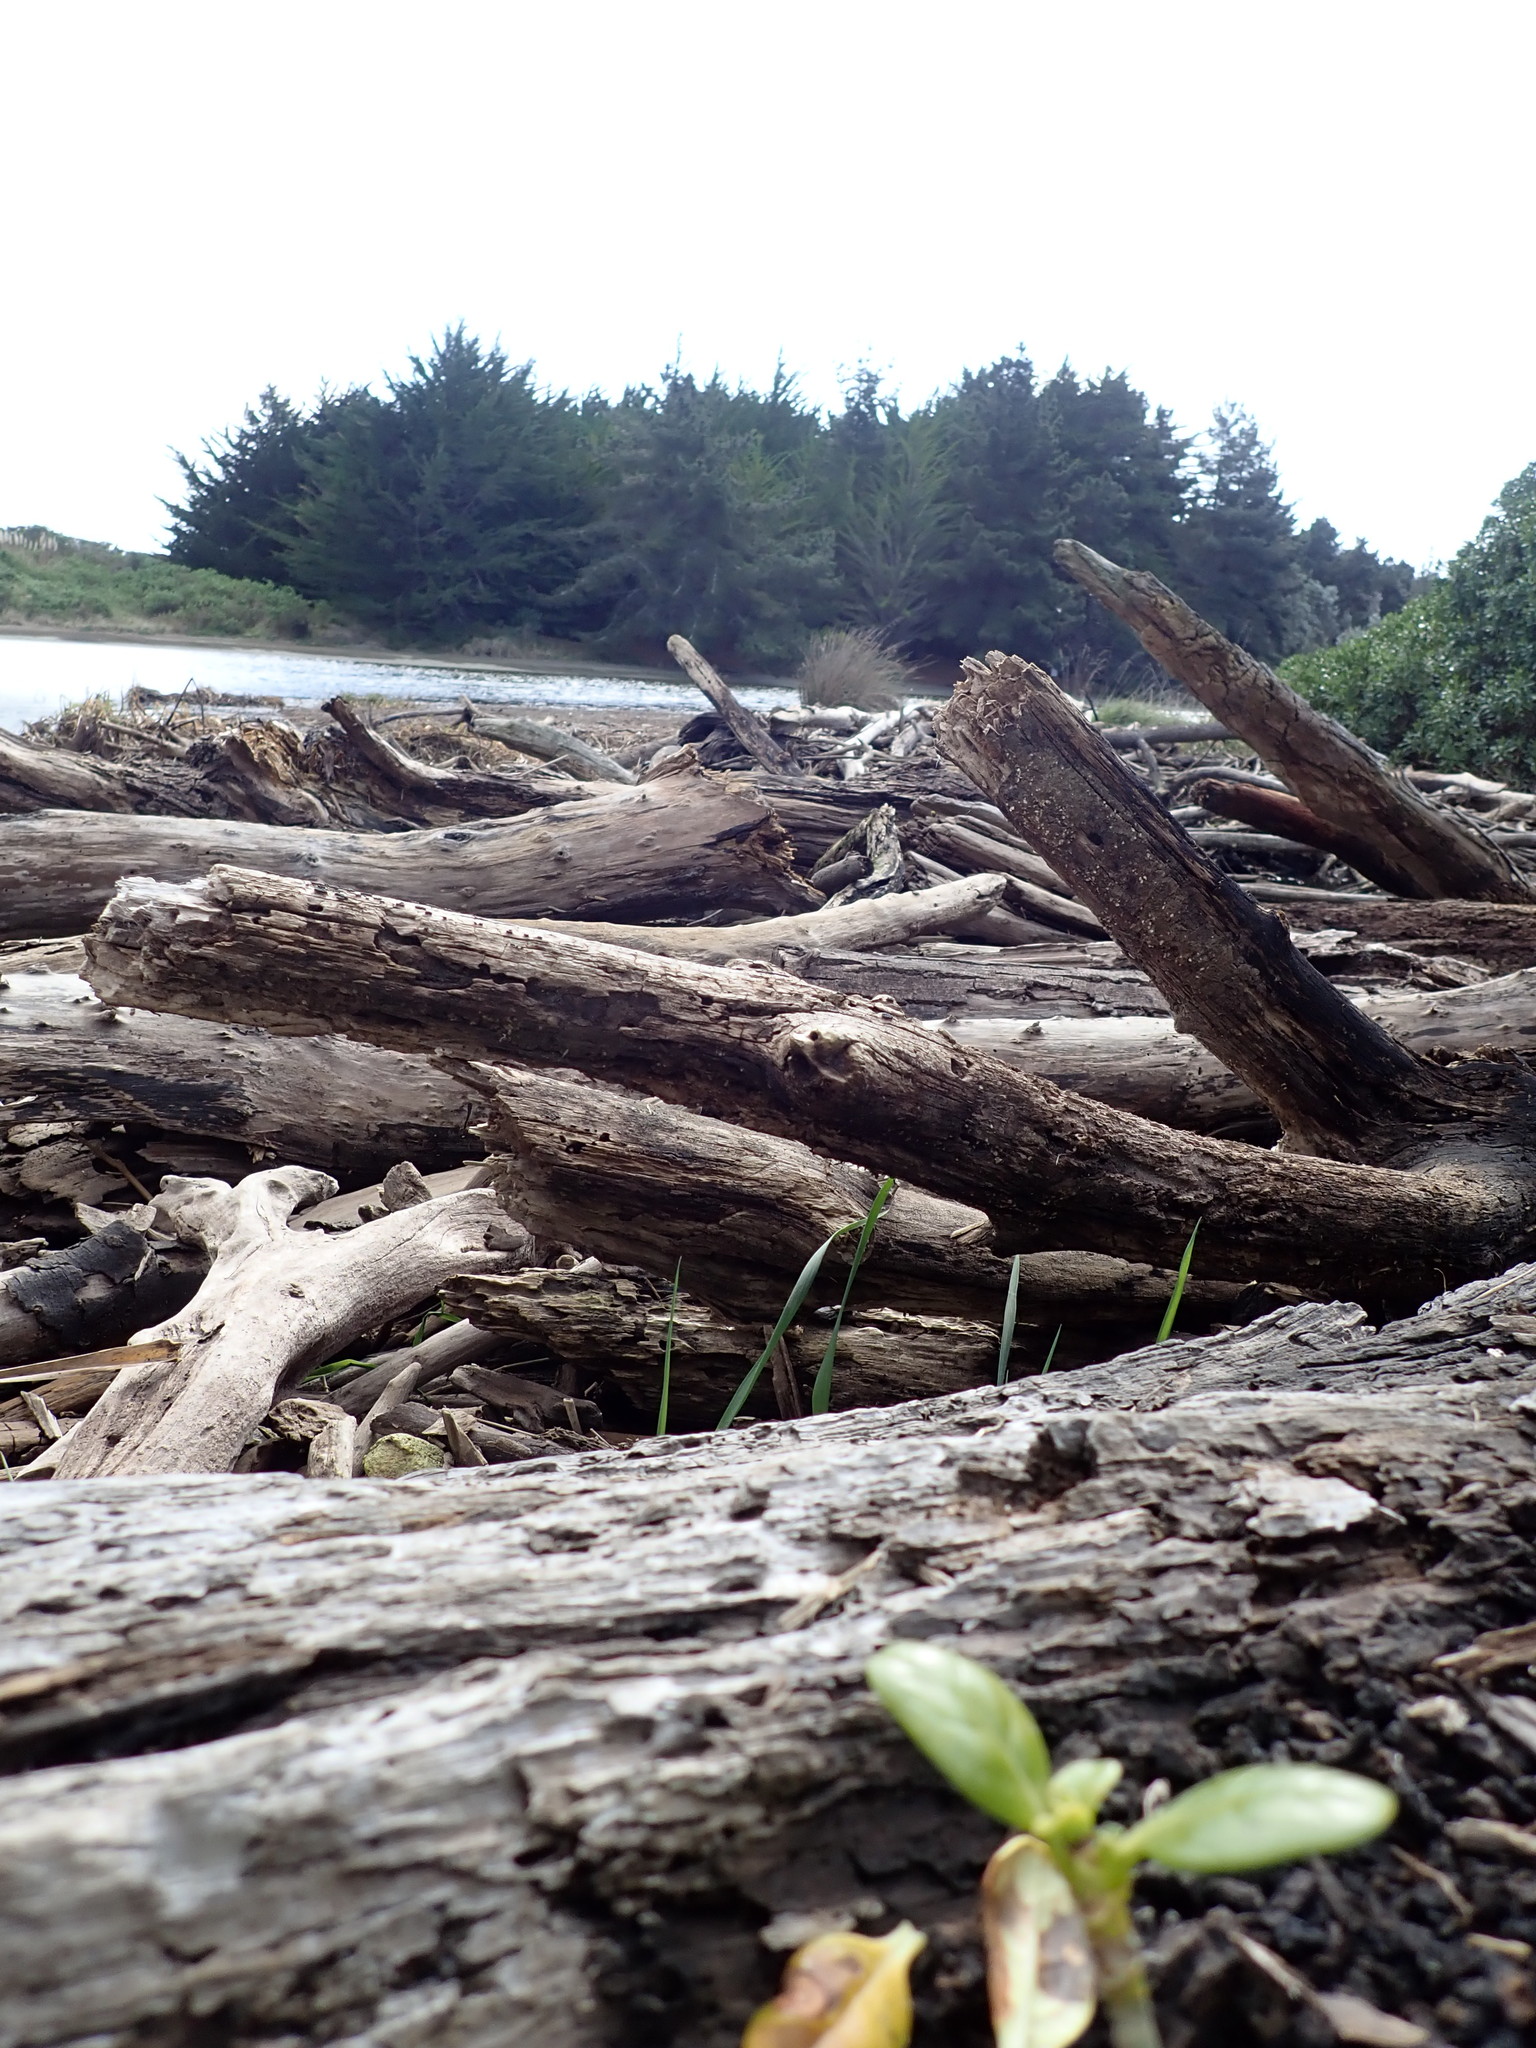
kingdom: Plantae
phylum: Tracheophyta
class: Magnoliopsida
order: Gentianales
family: Rubiaceae
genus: Coprosma
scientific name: Coprosma repens
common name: Tree bedstraw
